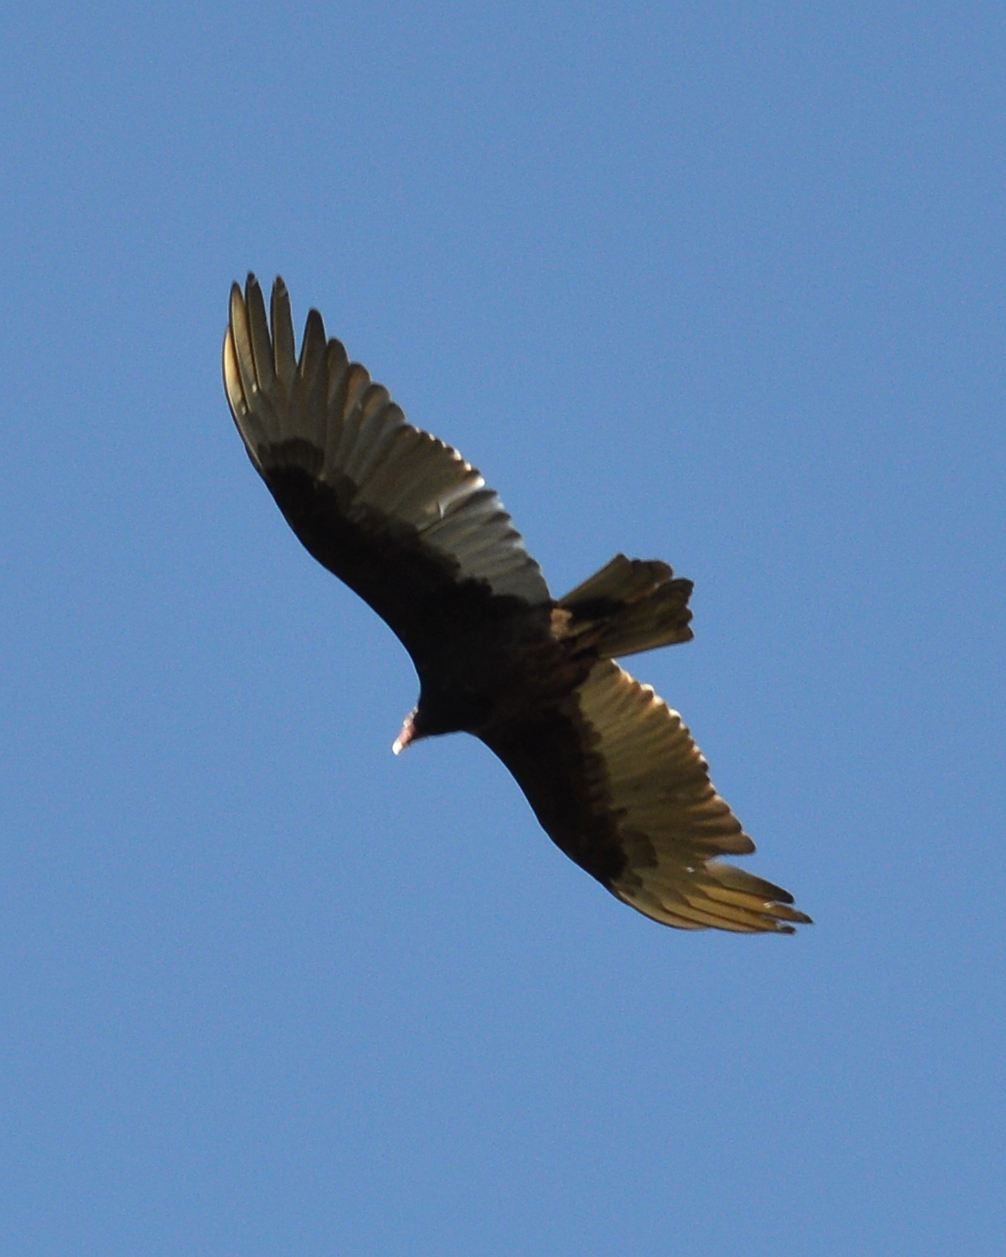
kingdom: Animalia
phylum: Chordata
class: Aves
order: Accipitriformes
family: Cathartidae
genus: Cathartes
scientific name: Cathartes aura
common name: Turkey vulture
